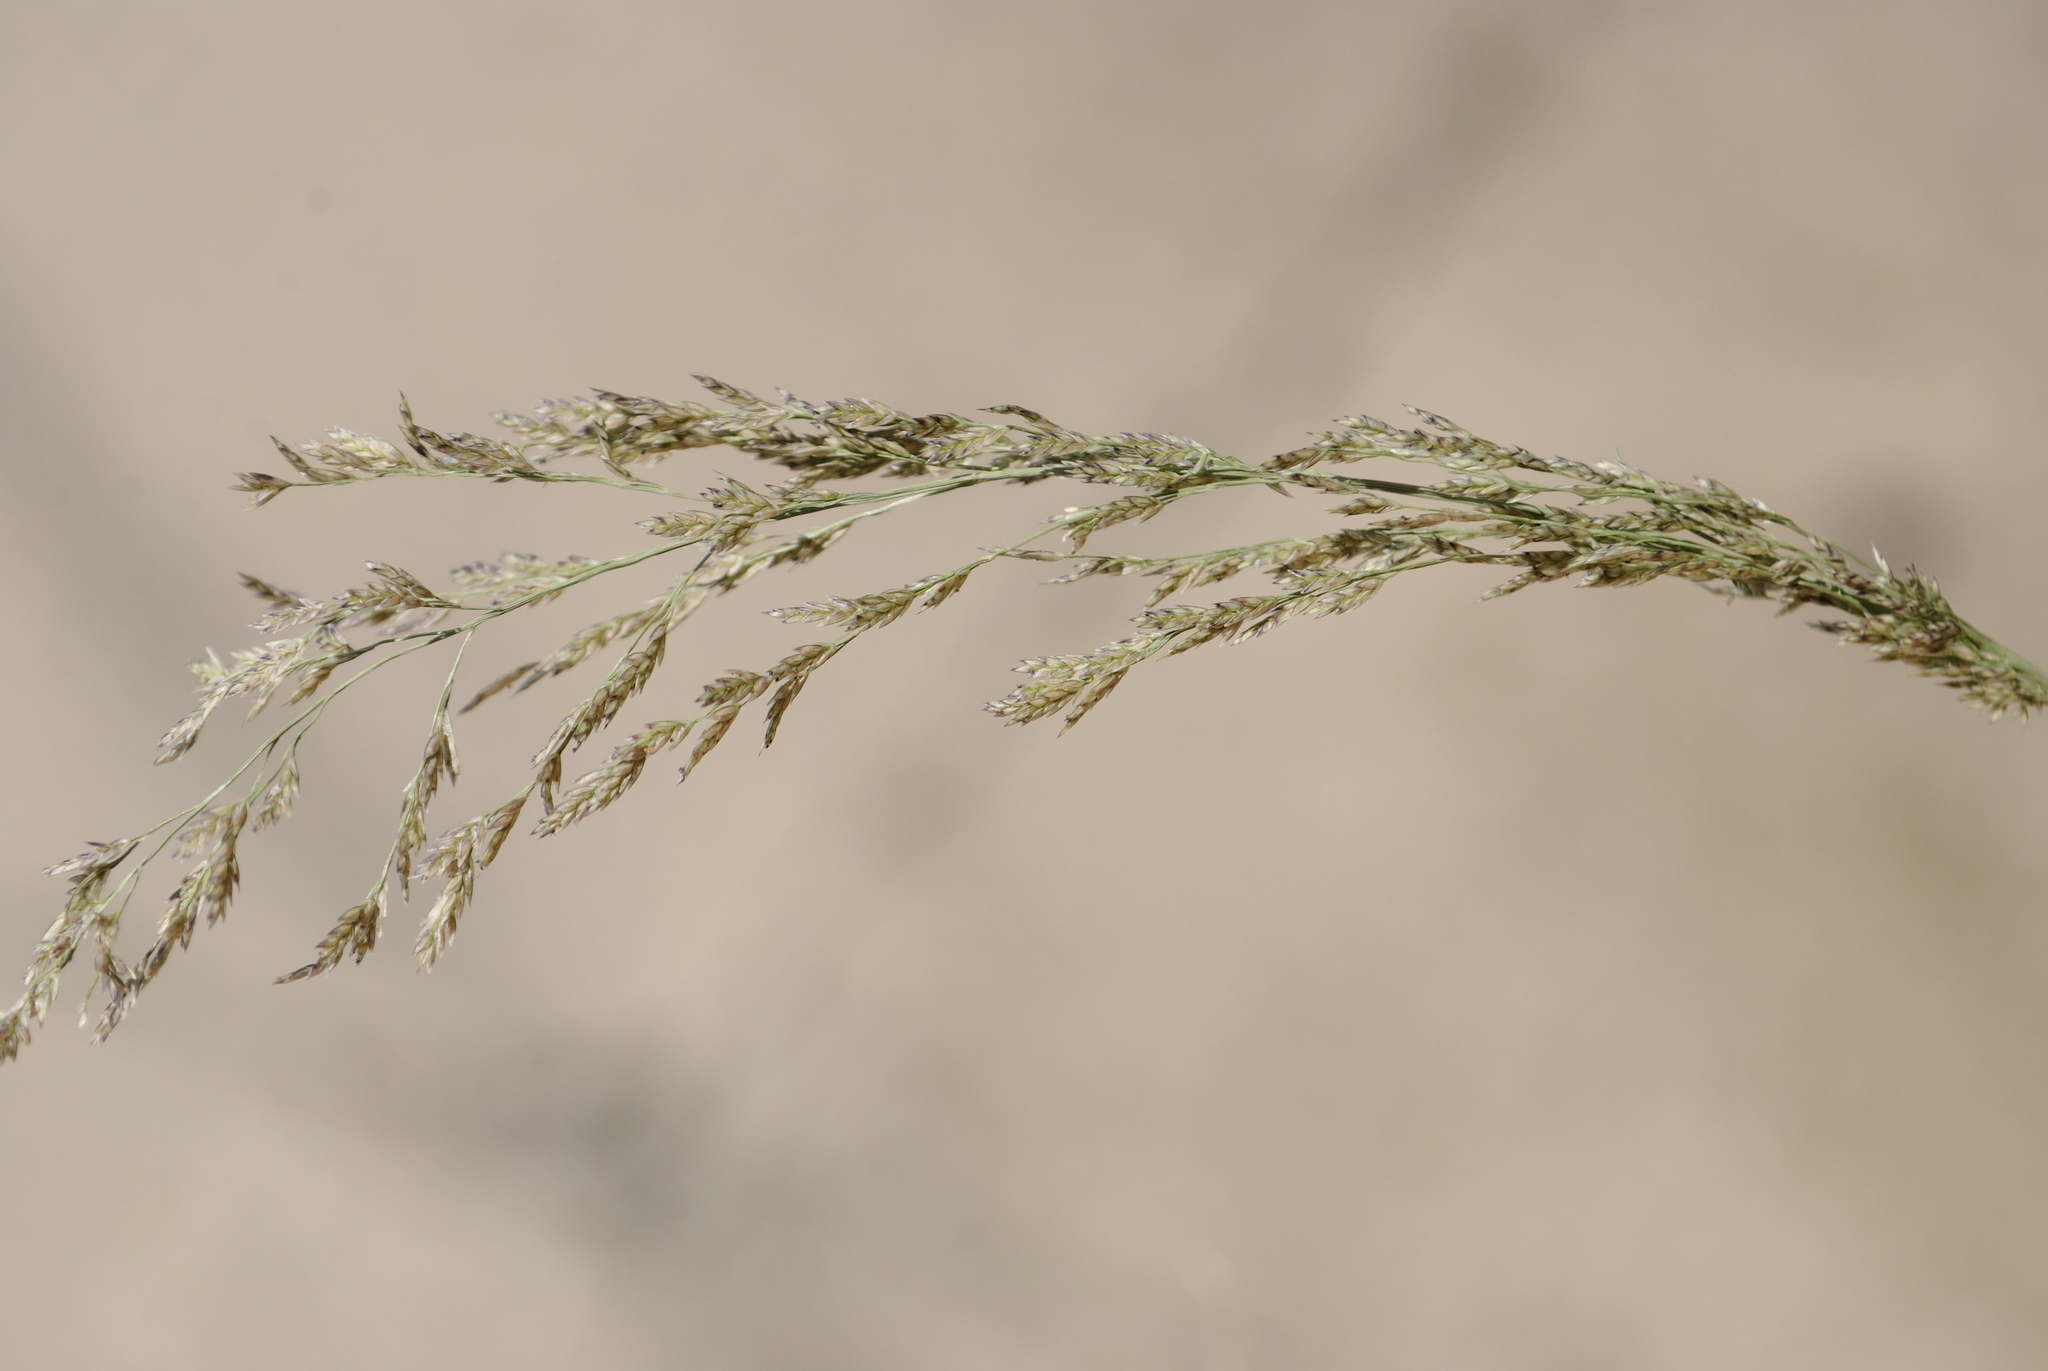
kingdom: Plantae
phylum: Tracheophyta
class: Liliopsida
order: Poales
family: Poaceae
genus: Eragrostis
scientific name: Eragrostis pilosa
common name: Indian lovegrass
